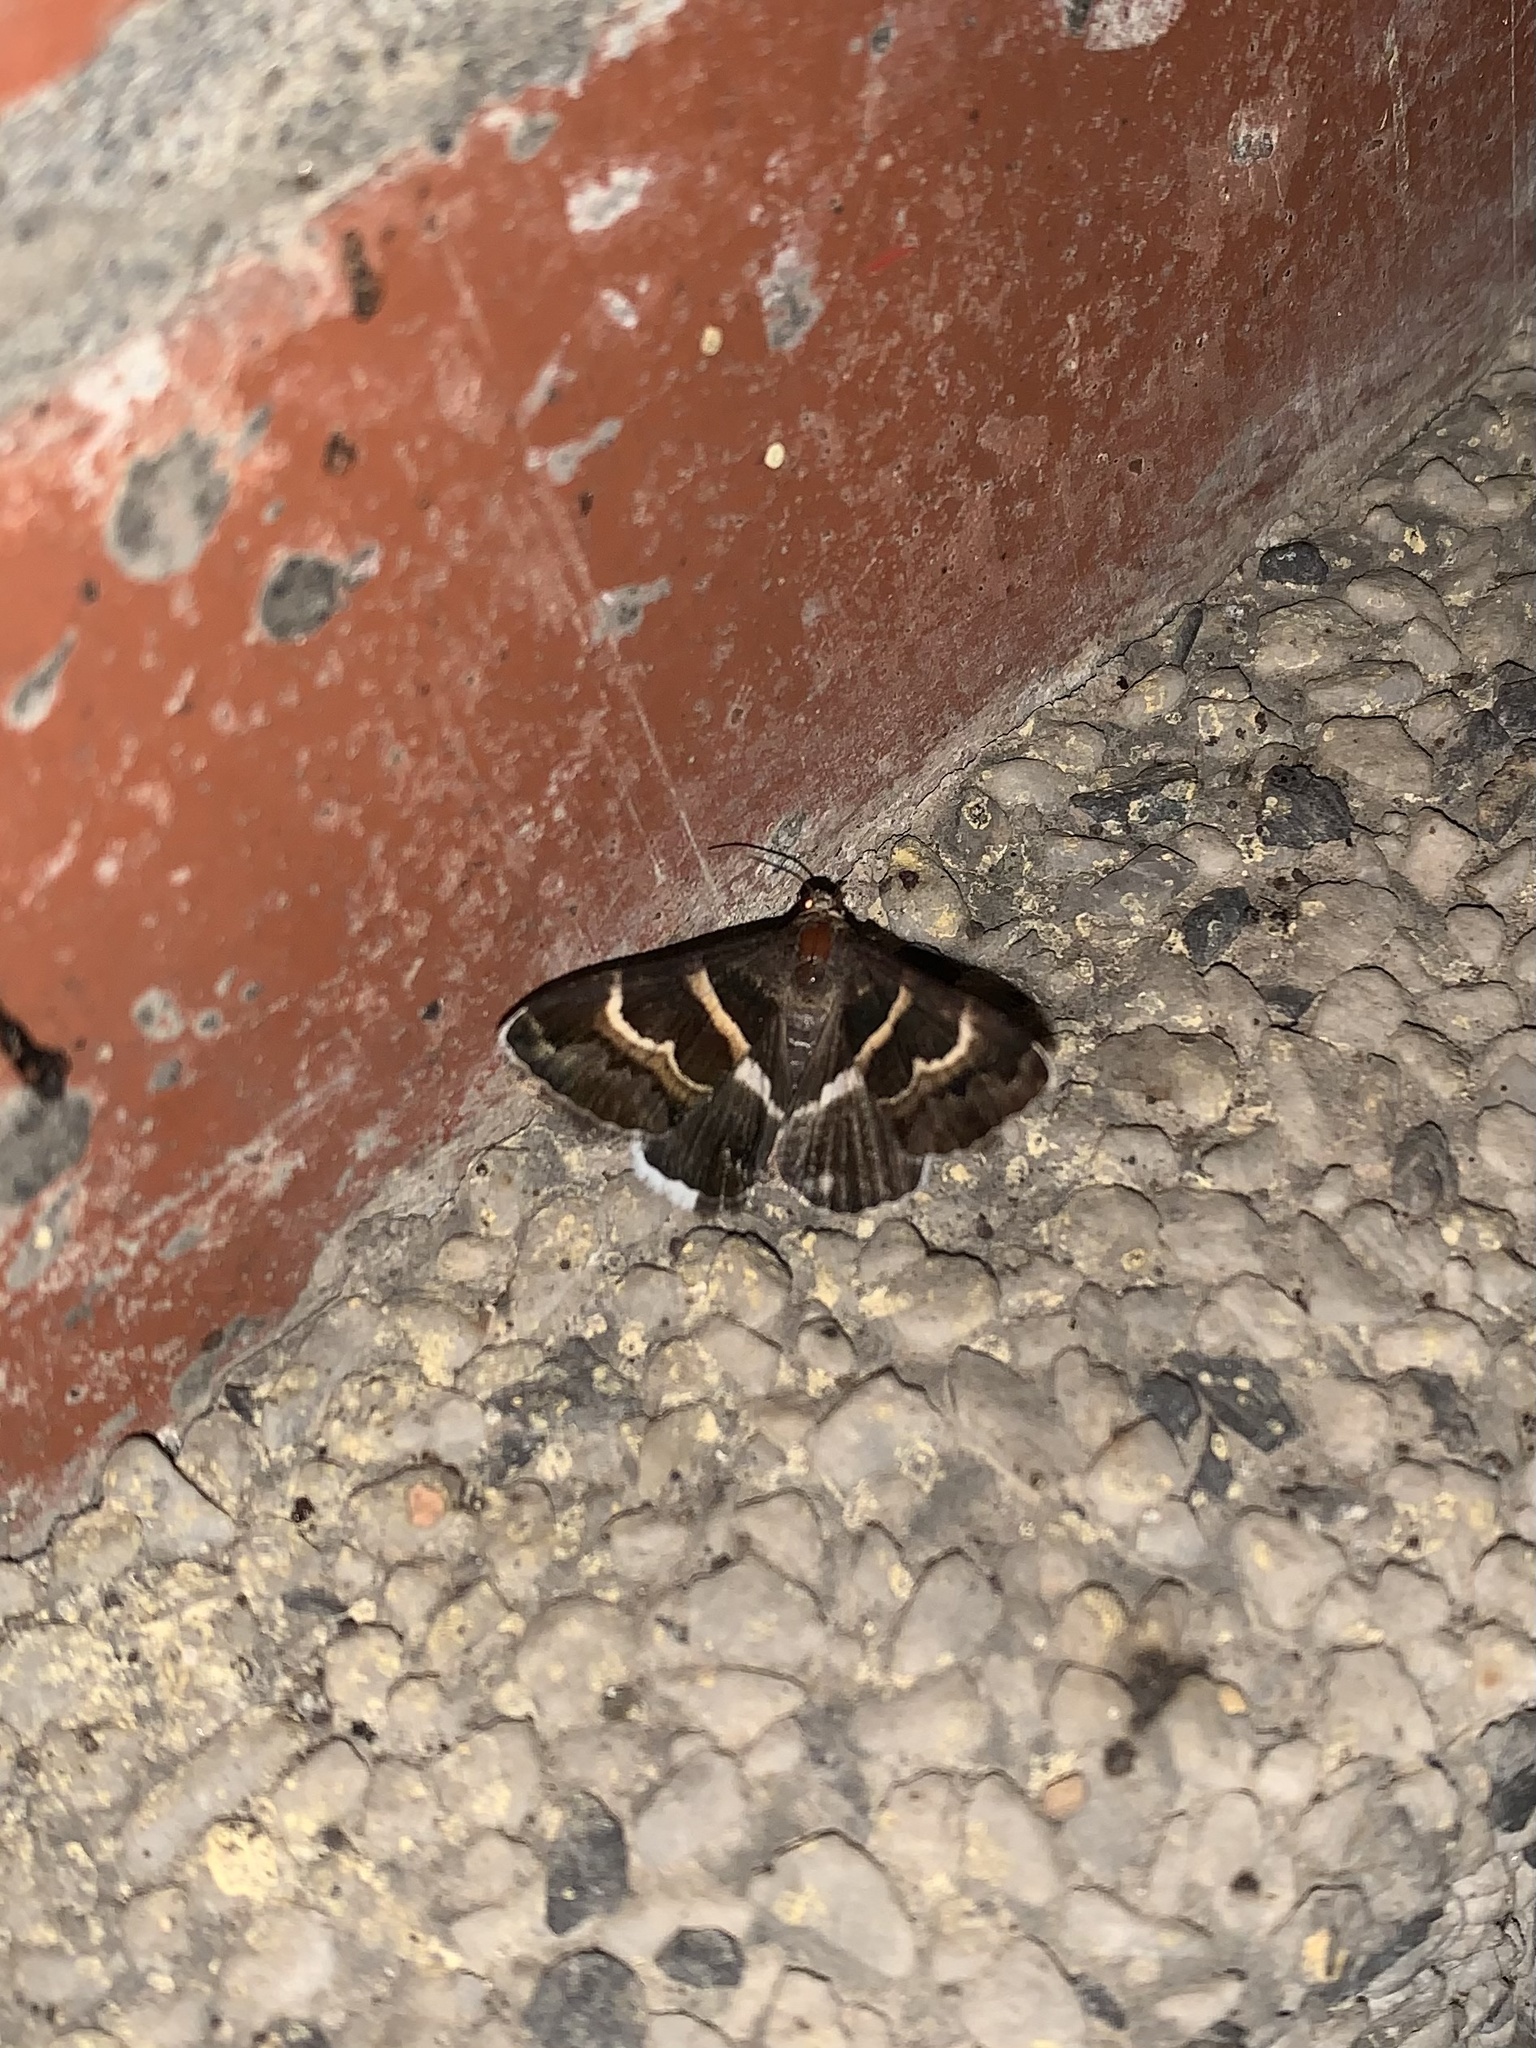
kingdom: Animalia
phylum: Arthropoda
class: Insecta
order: Lepidoptera
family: Erebidae
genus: Grammodes
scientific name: Grammodes stolida
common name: Geometrician
